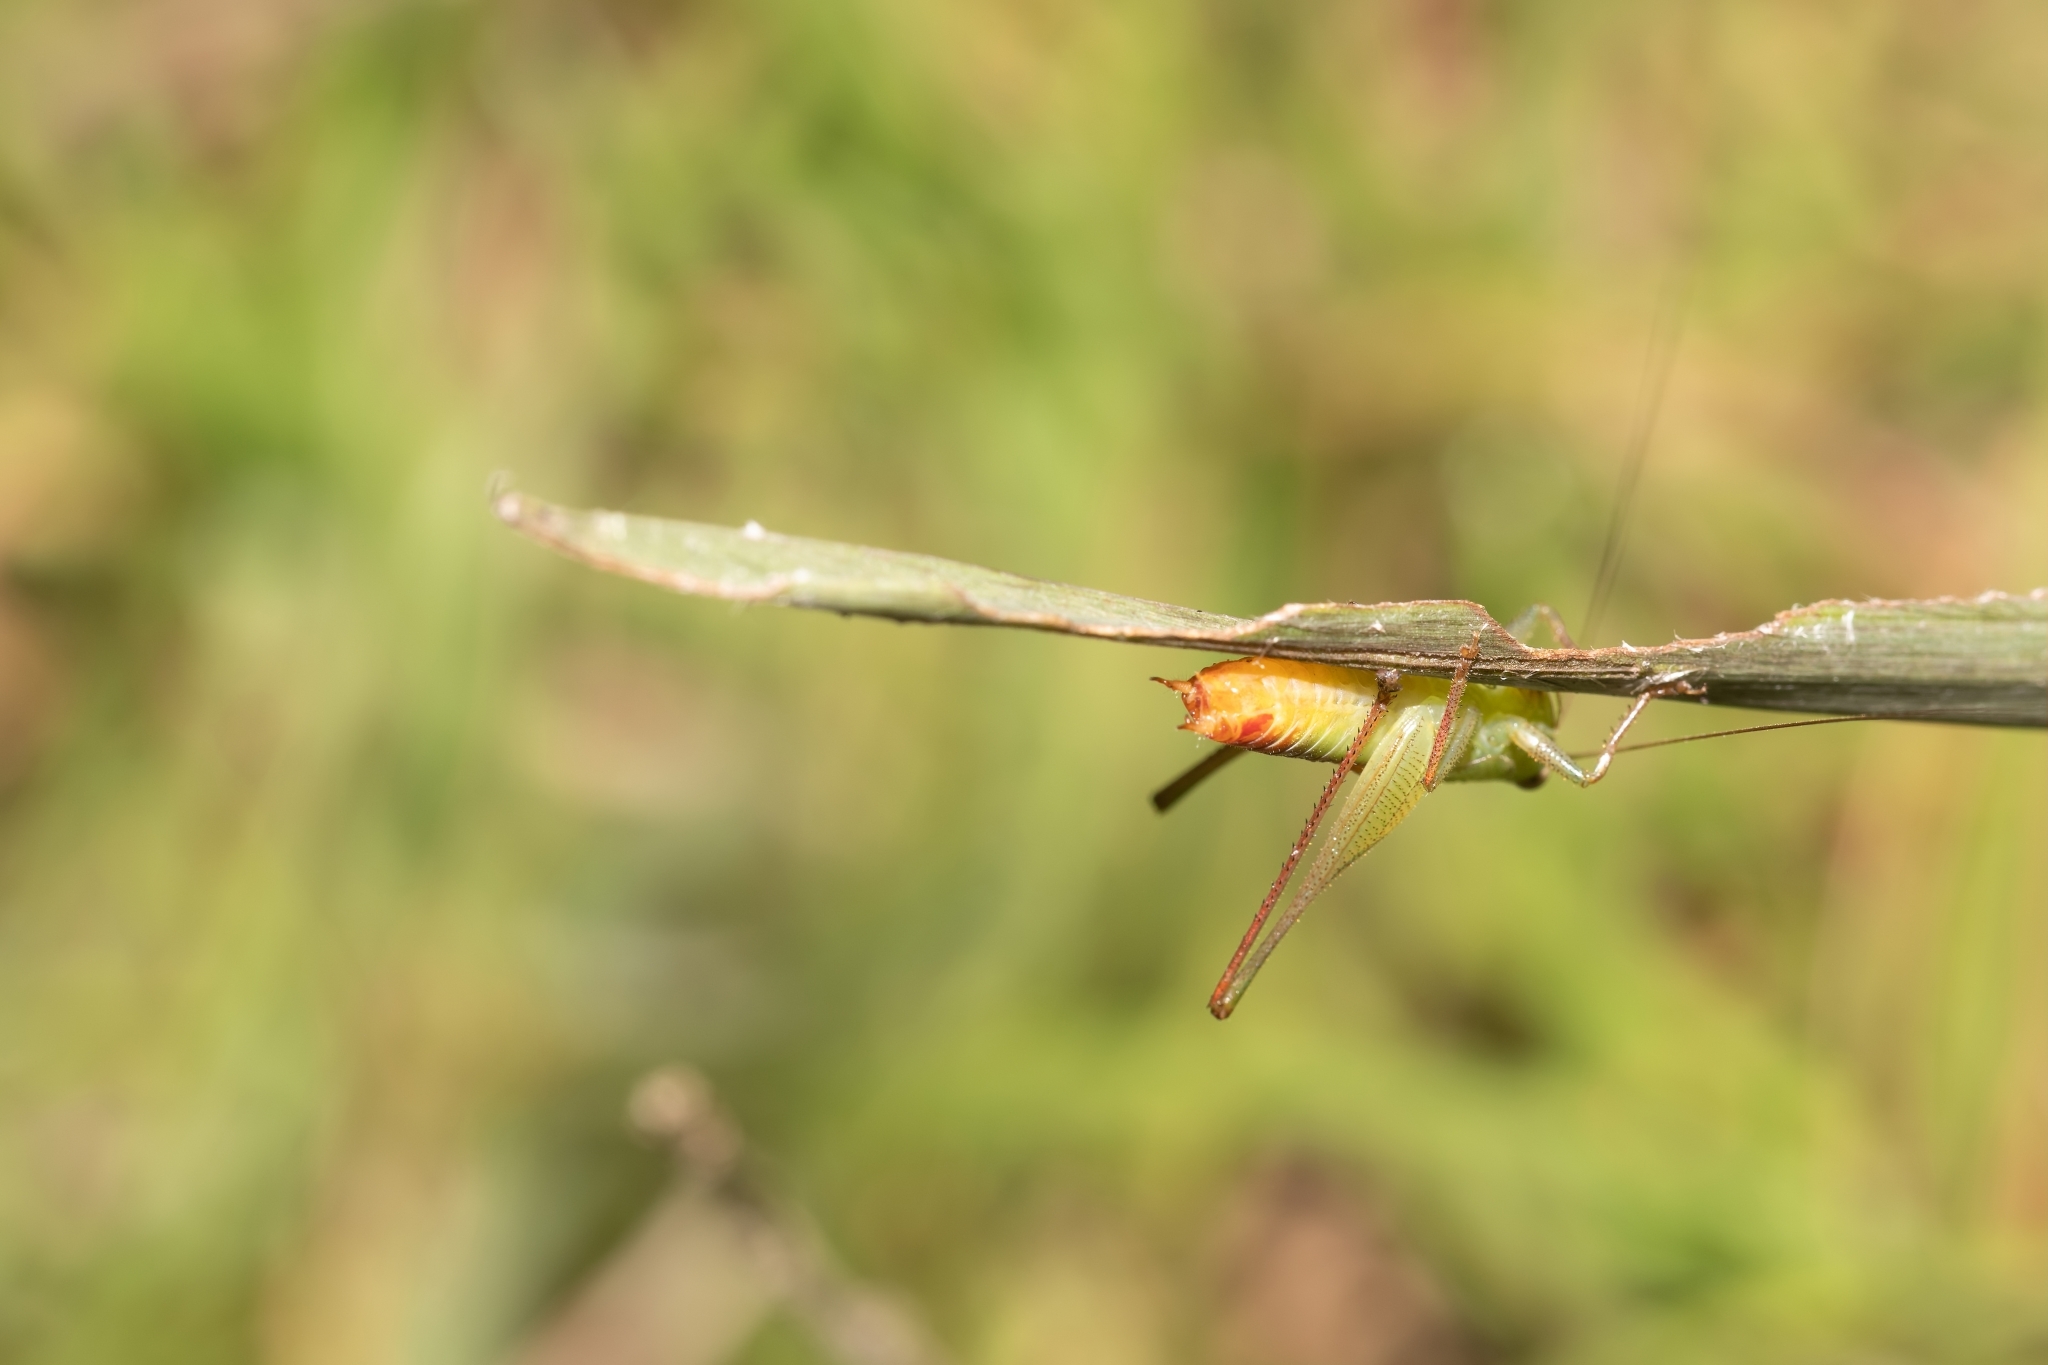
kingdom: Animalia
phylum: Arthropoda
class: Insecta
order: Orthoptera
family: Tettigoniidae
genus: Odontoxiphidium
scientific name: Odontoxiphidium apterum
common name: Wingless meadow katydid
